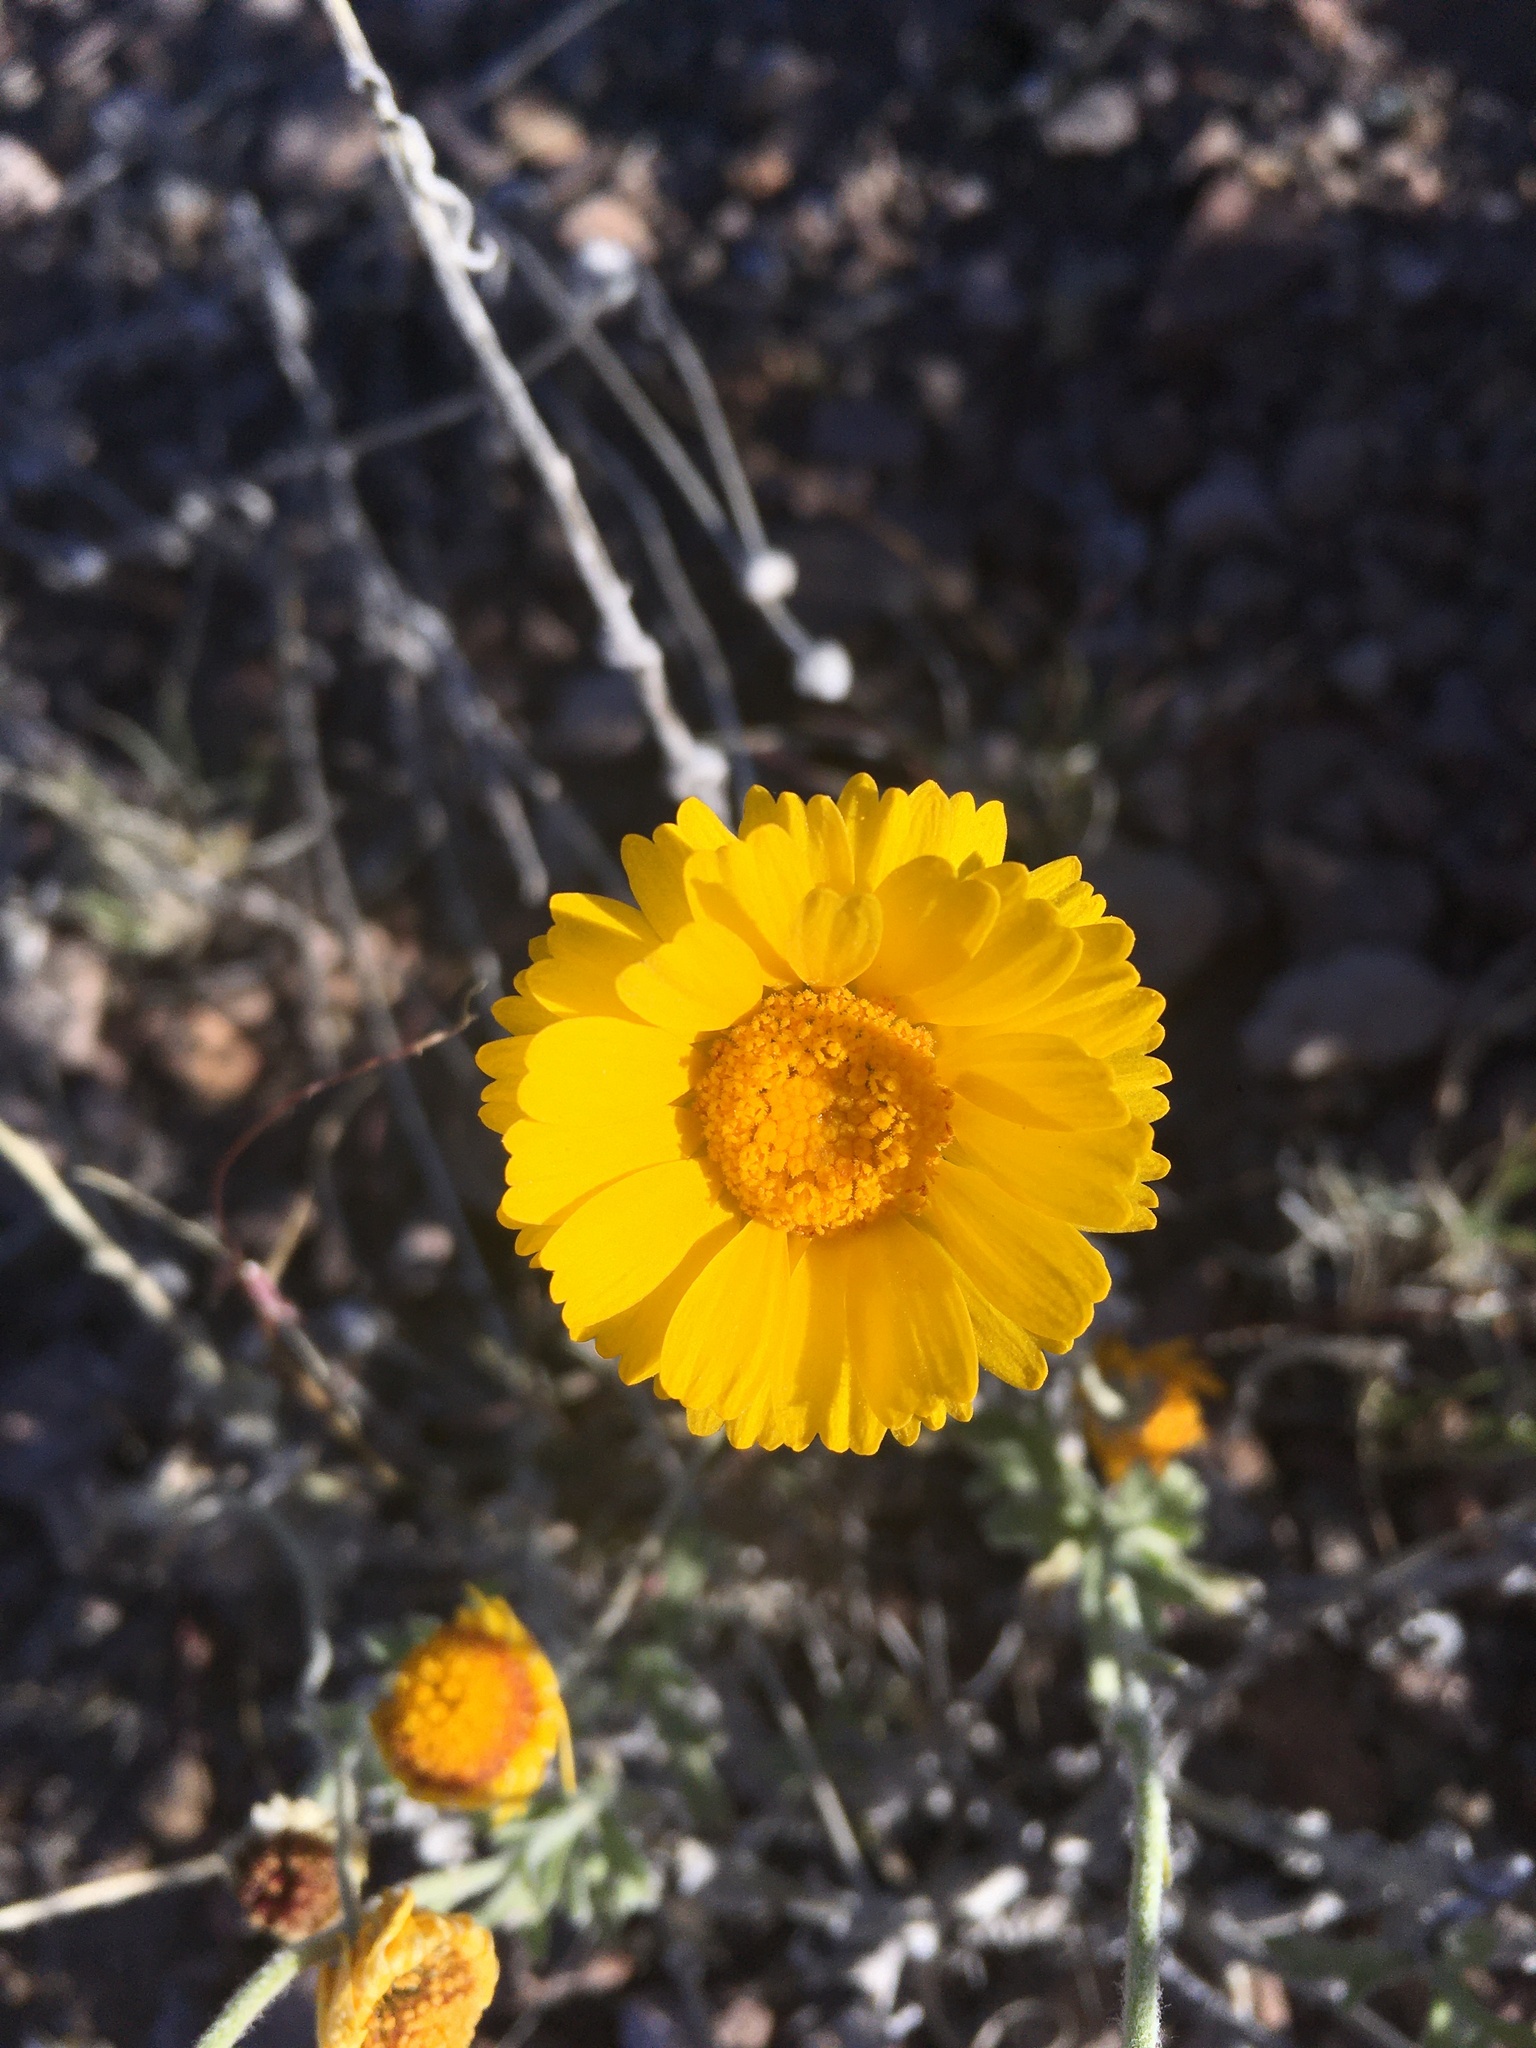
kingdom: Plantae
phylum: Tracheophyta
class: Magnoliopsida
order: Asterales
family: Asteraceae
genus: Baileya
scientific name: Baileya multiradiata
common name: Desert-marigold
